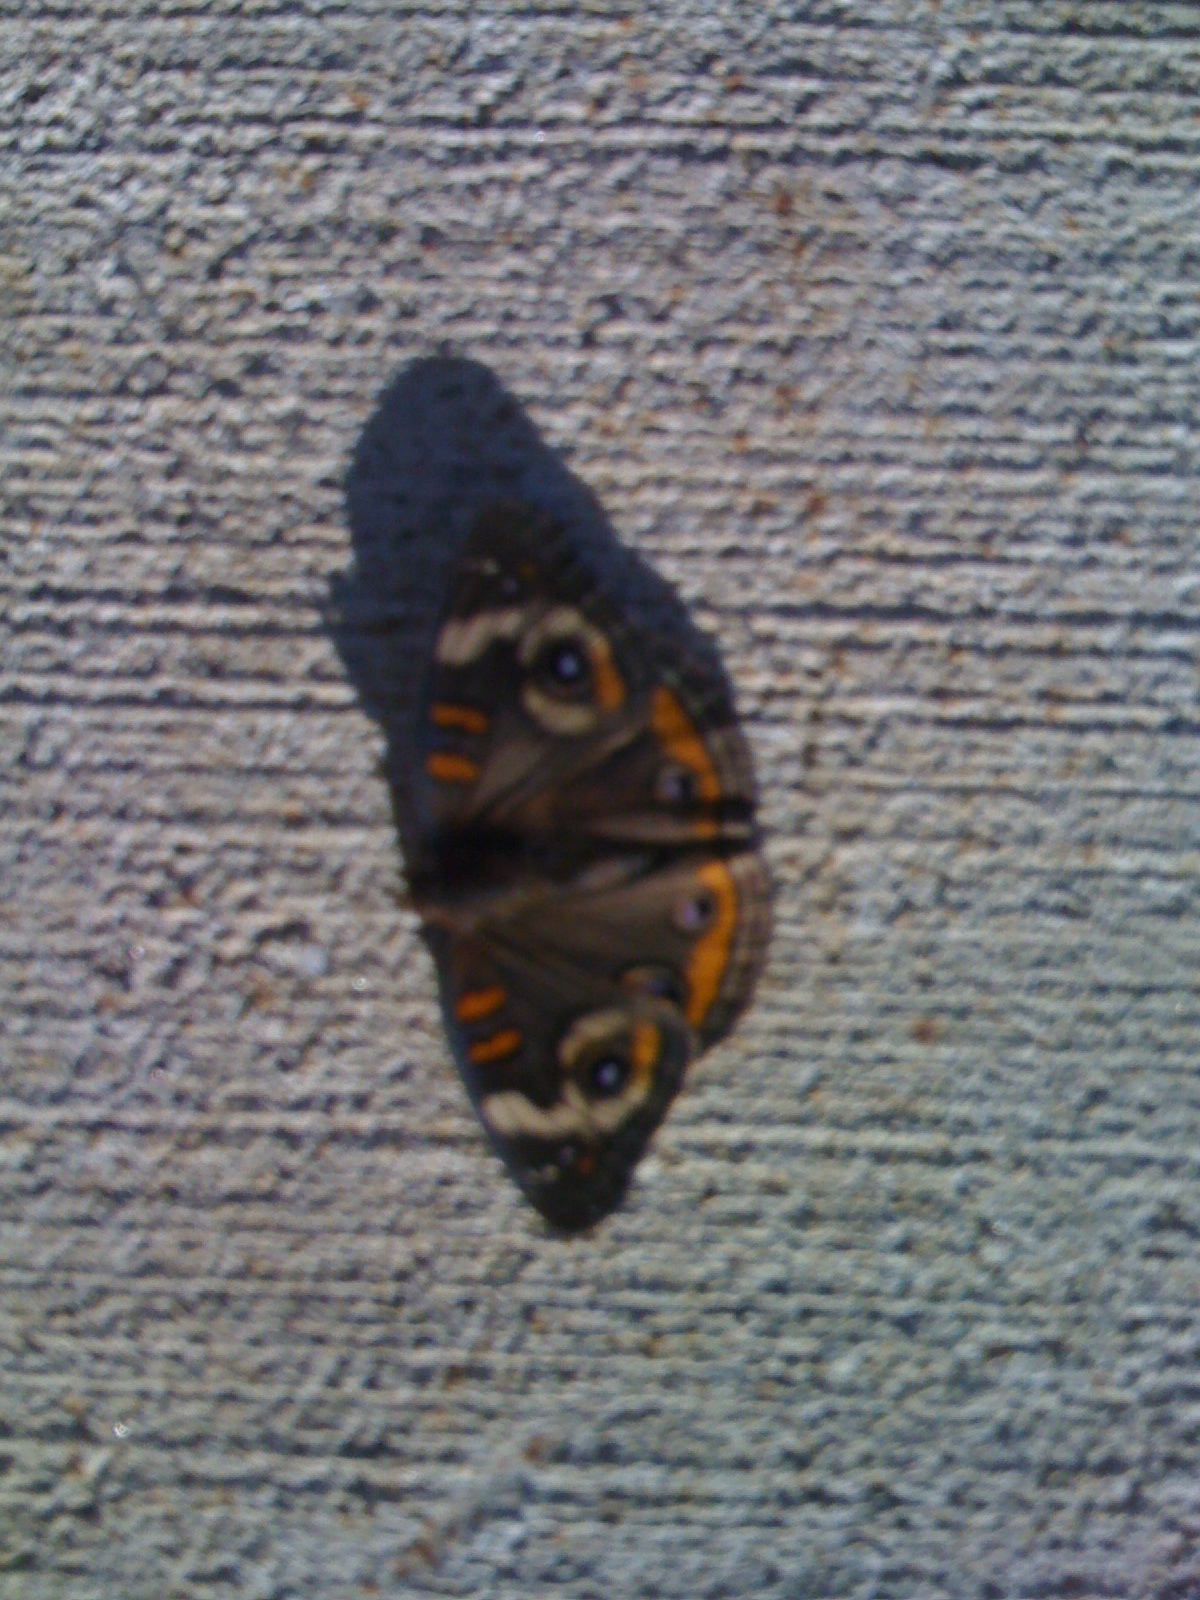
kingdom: Animalia
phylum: Arthropoda
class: Insecta
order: Lepidoptera
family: Nymphalidae
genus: Junonia
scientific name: Junonia coenia
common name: Common buckeye
